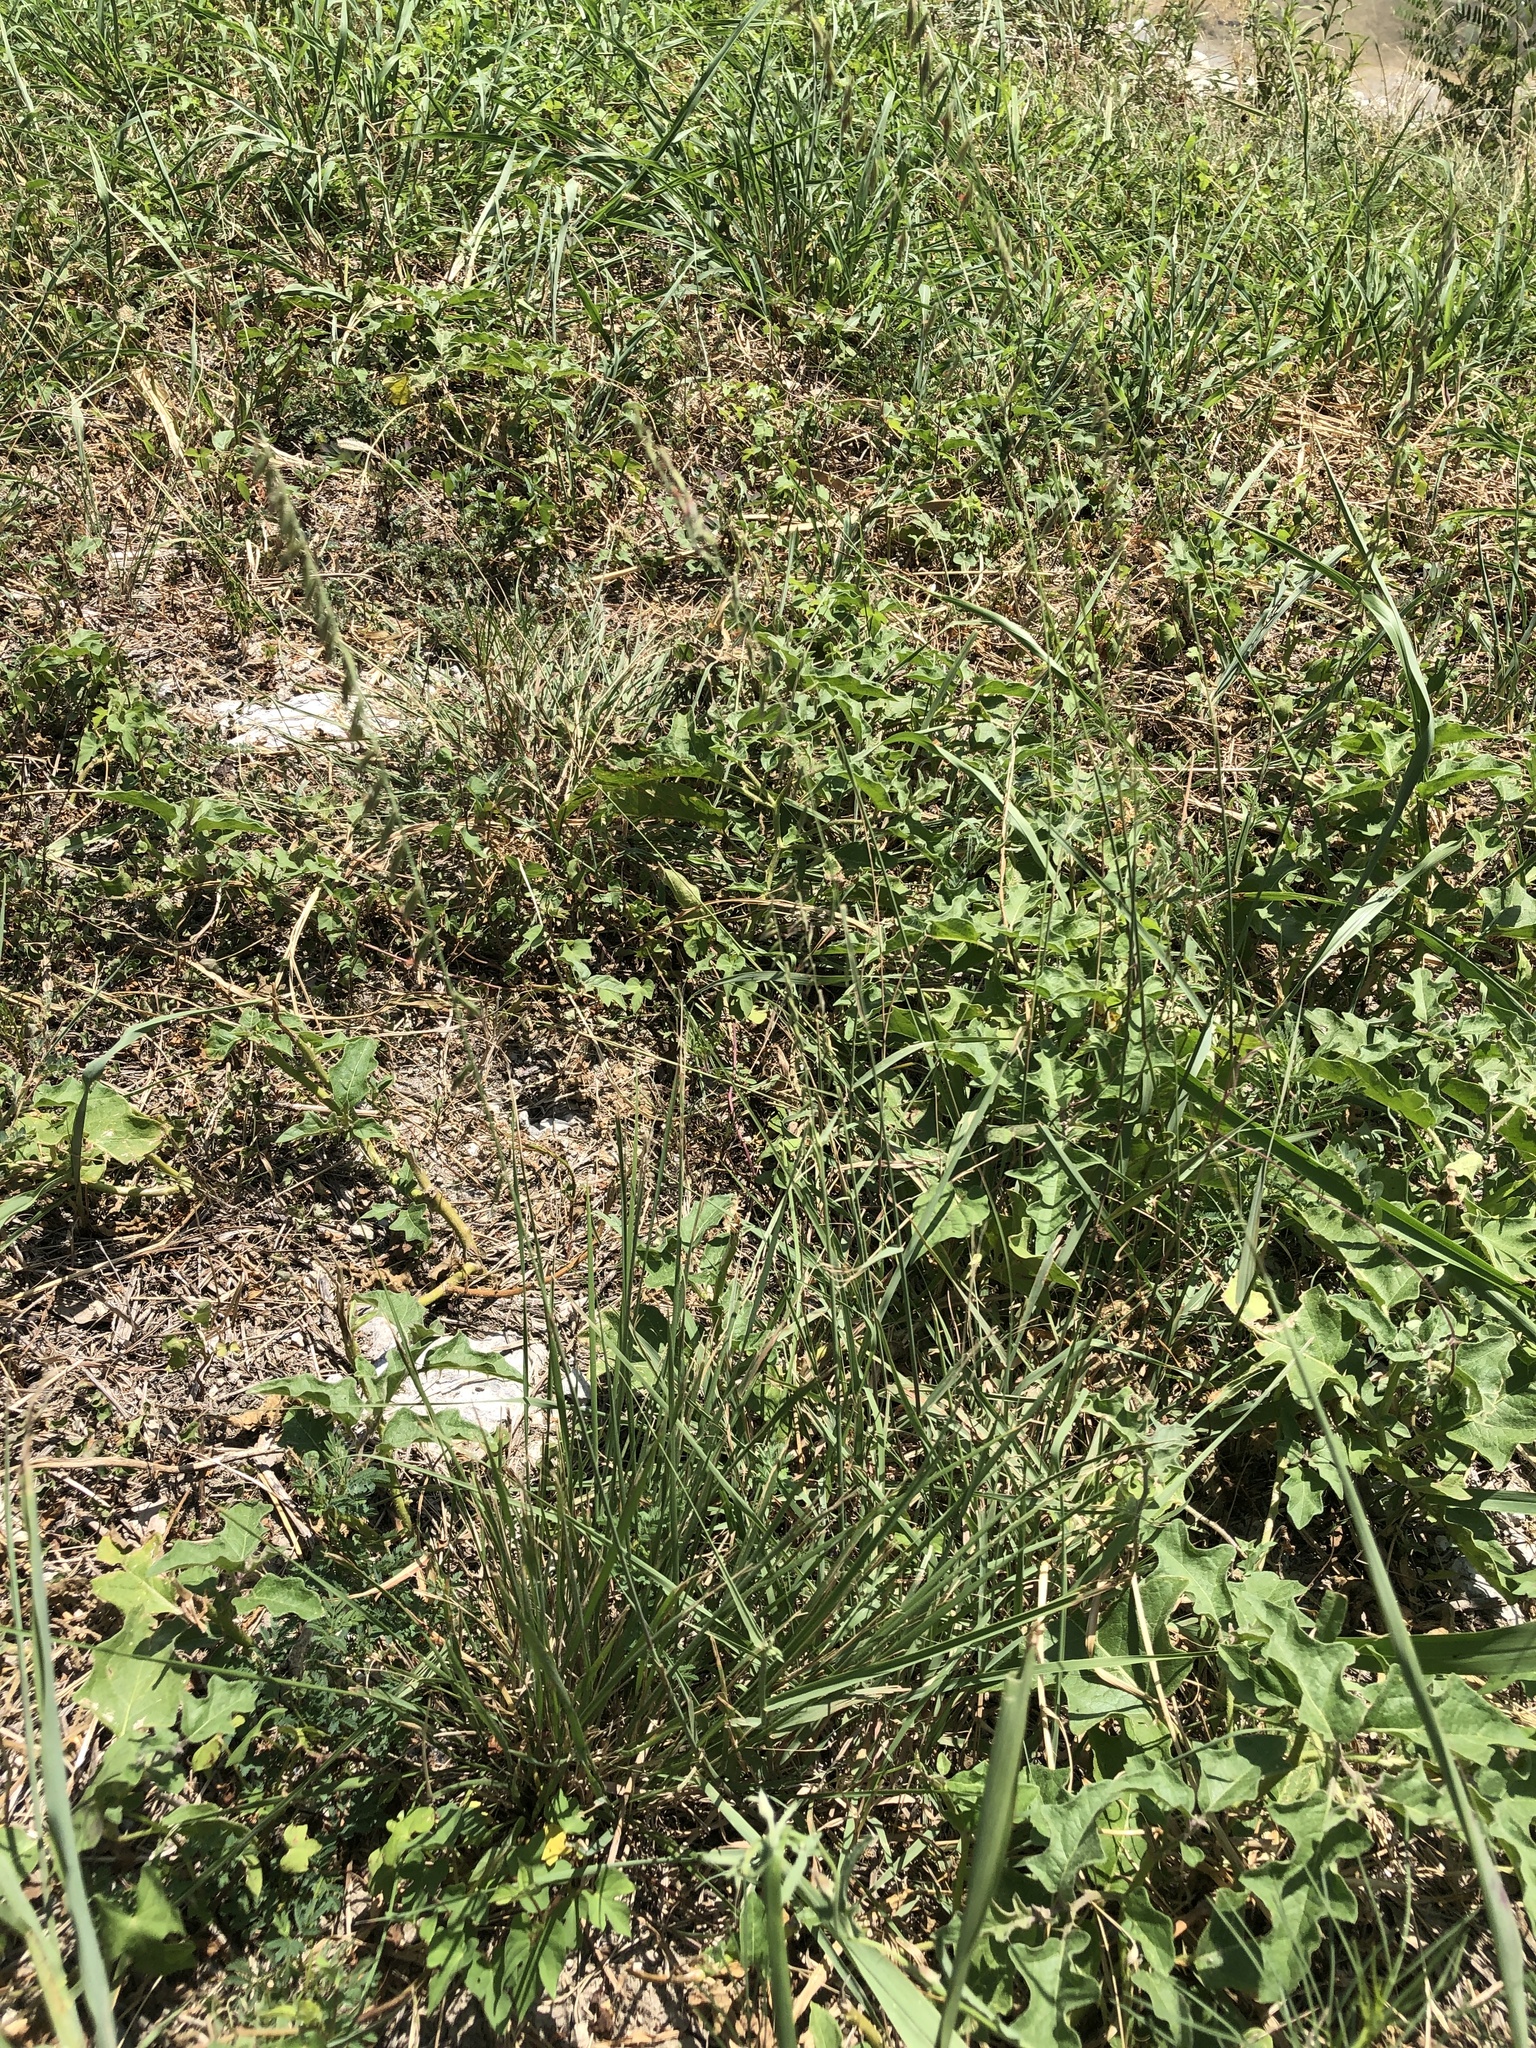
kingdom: Plantae
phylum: Tracheophyta
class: Liliopsida
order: Poales
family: Poaceae
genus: Bouteloua
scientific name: Bouteloua curtipendula
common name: Side-oats grama
